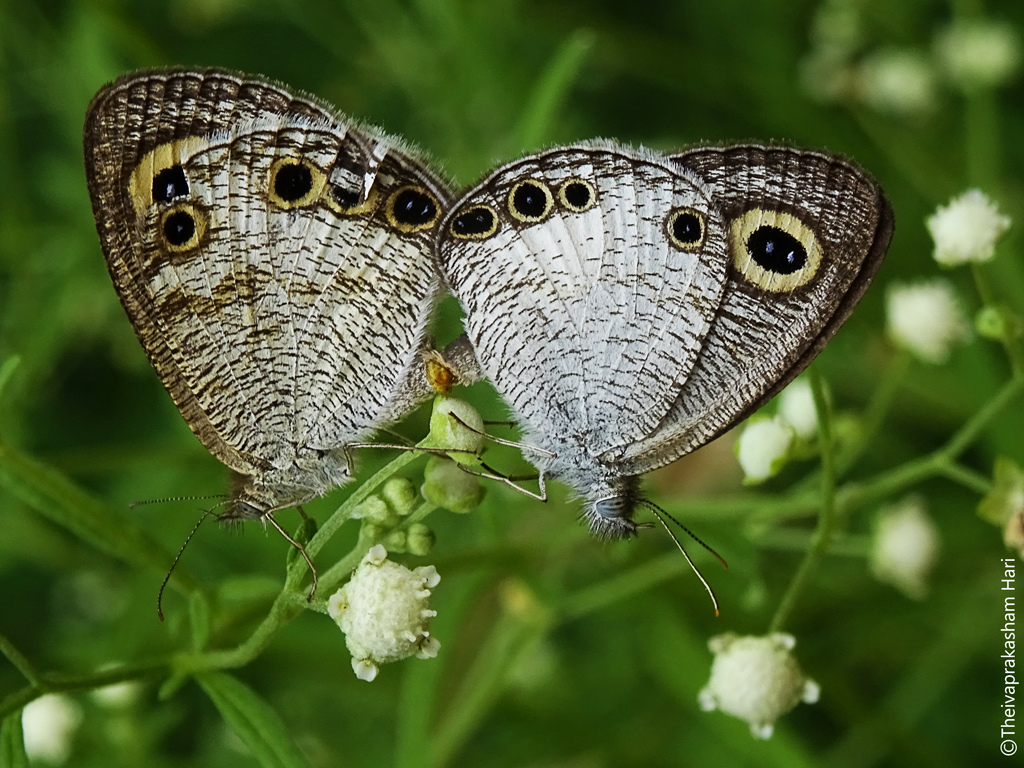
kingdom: Animalia
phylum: Arthropoda
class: Insecta
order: Lepidoptera
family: Nymphalidae
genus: Ypthima
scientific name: Ypthima ceylonica
